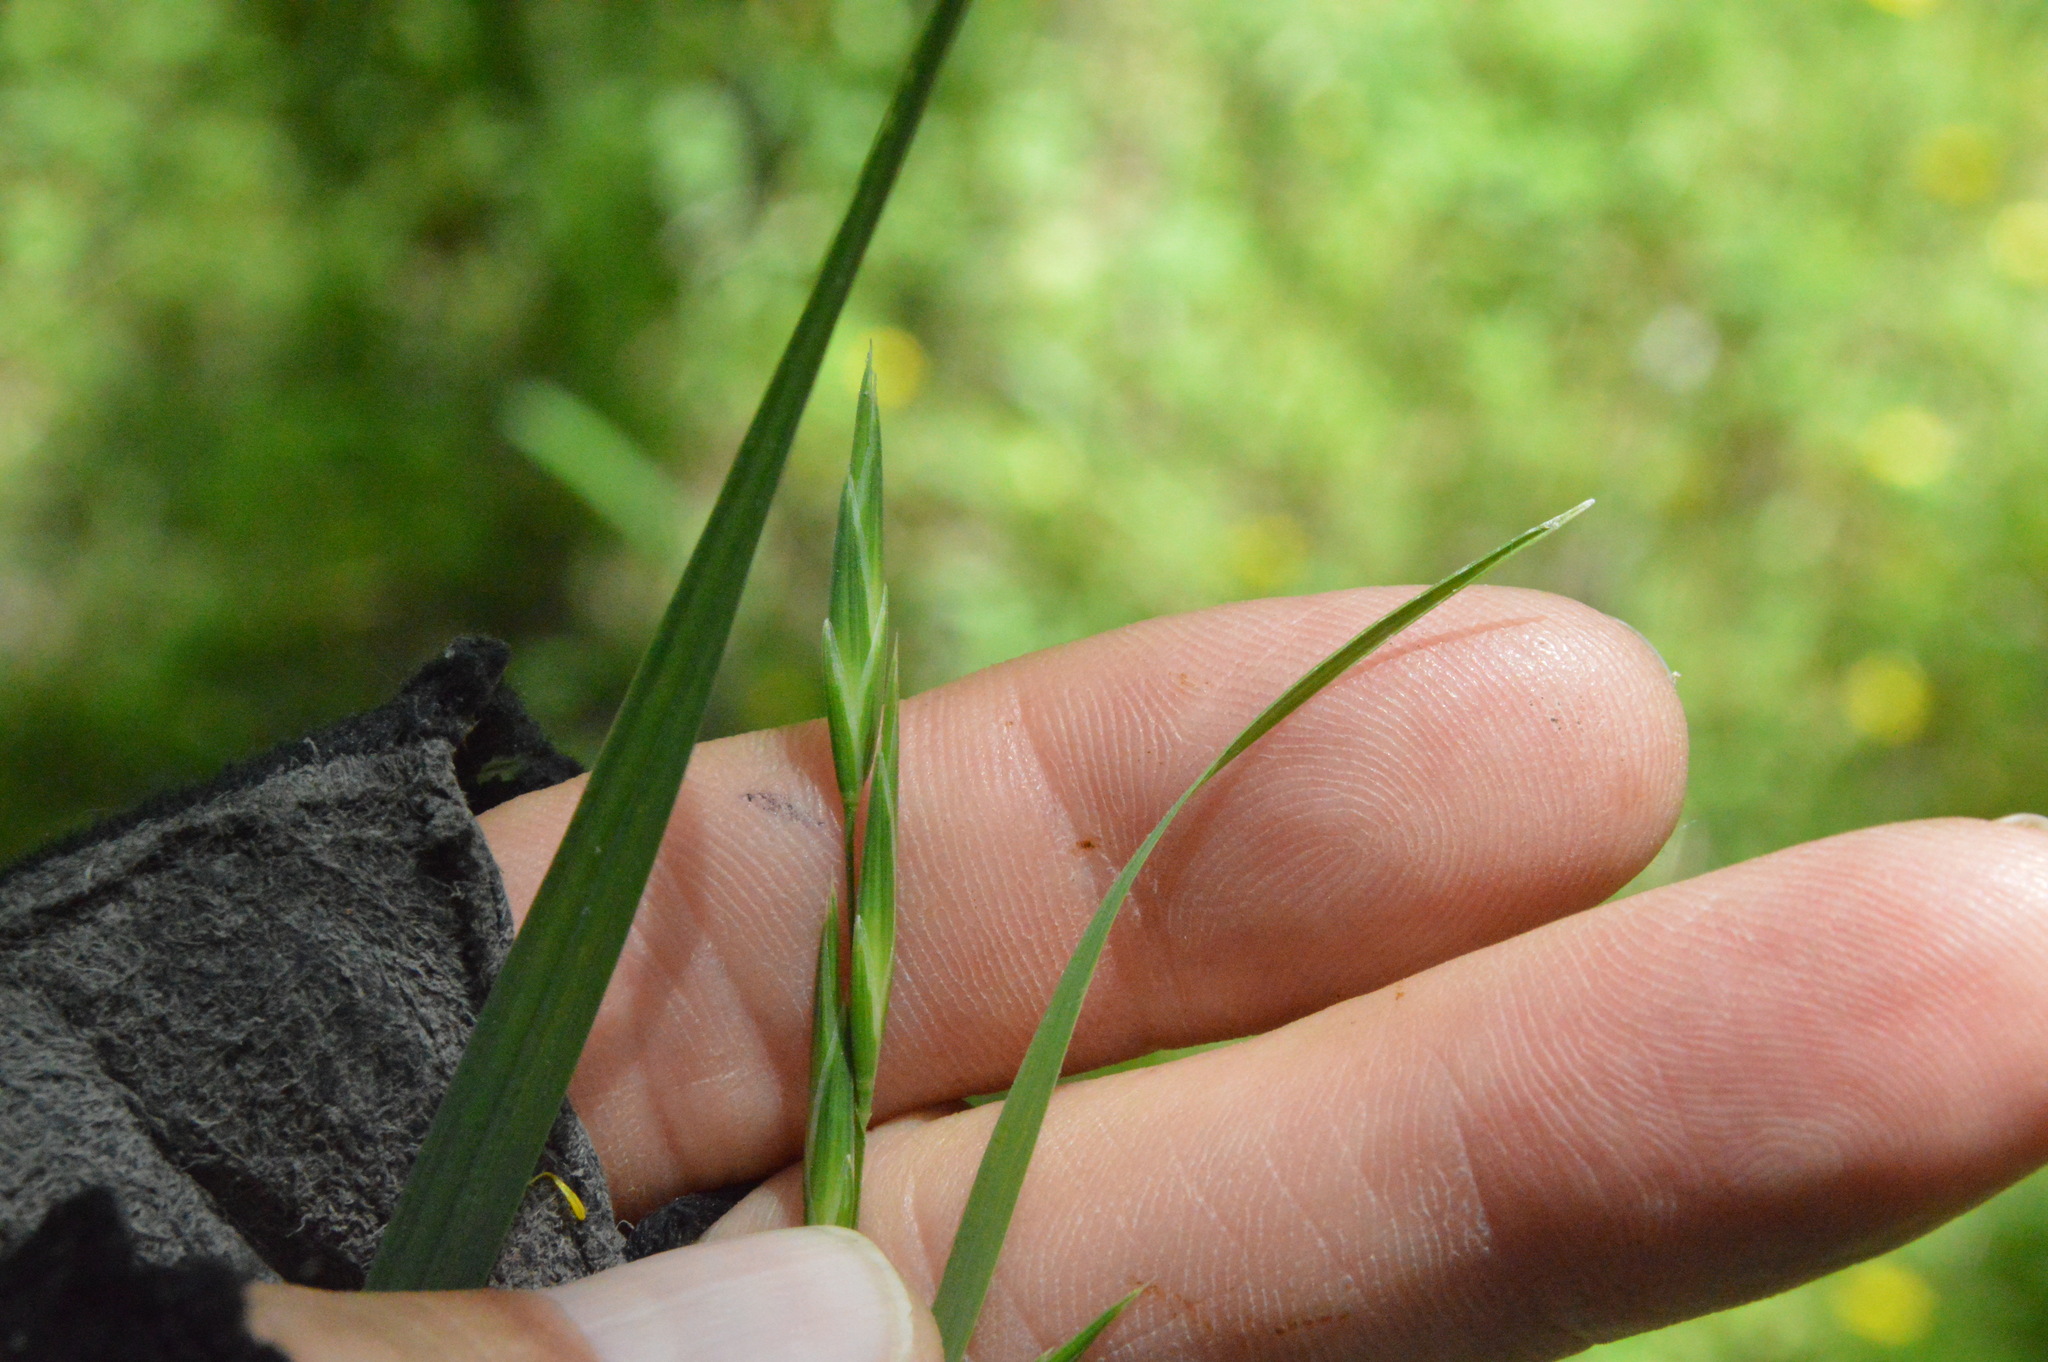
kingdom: Plantae
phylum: Tracheophyta
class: Liliopsida
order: Poales
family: Poaceae
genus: Bromus
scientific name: Bromus catharticus
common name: Rescuegrass
